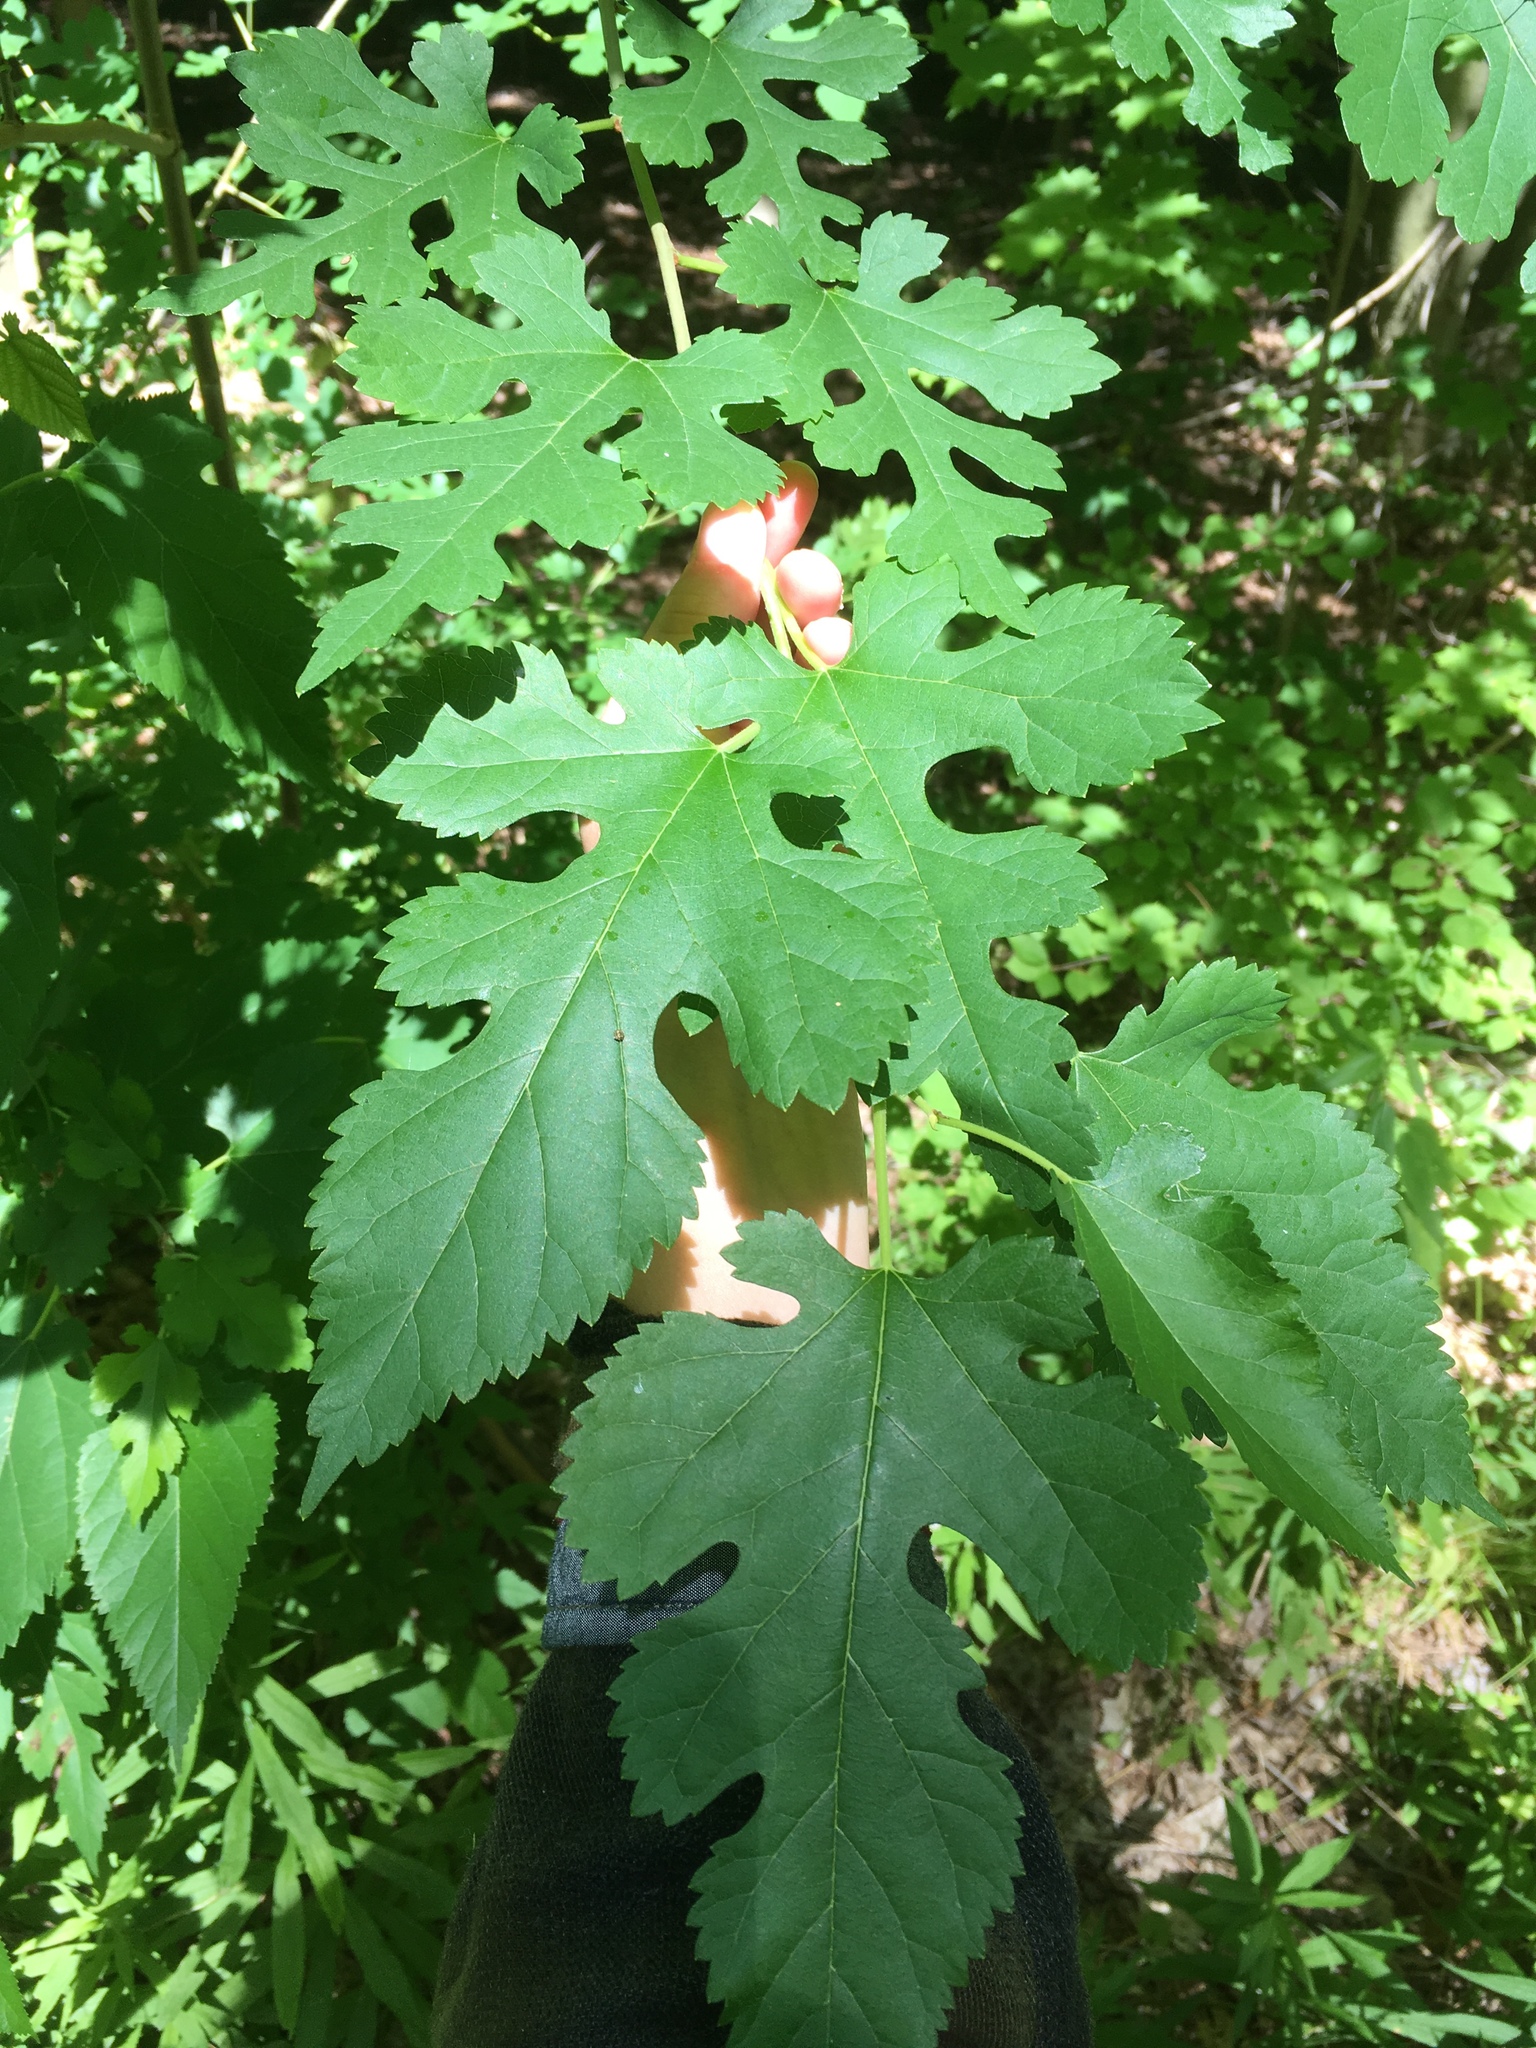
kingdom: Plantae
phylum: Tracheophyta
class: Magnoliopsida
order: Rosales
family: Moraceae
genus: Morus
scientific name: Morus alba
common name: White mulberry
